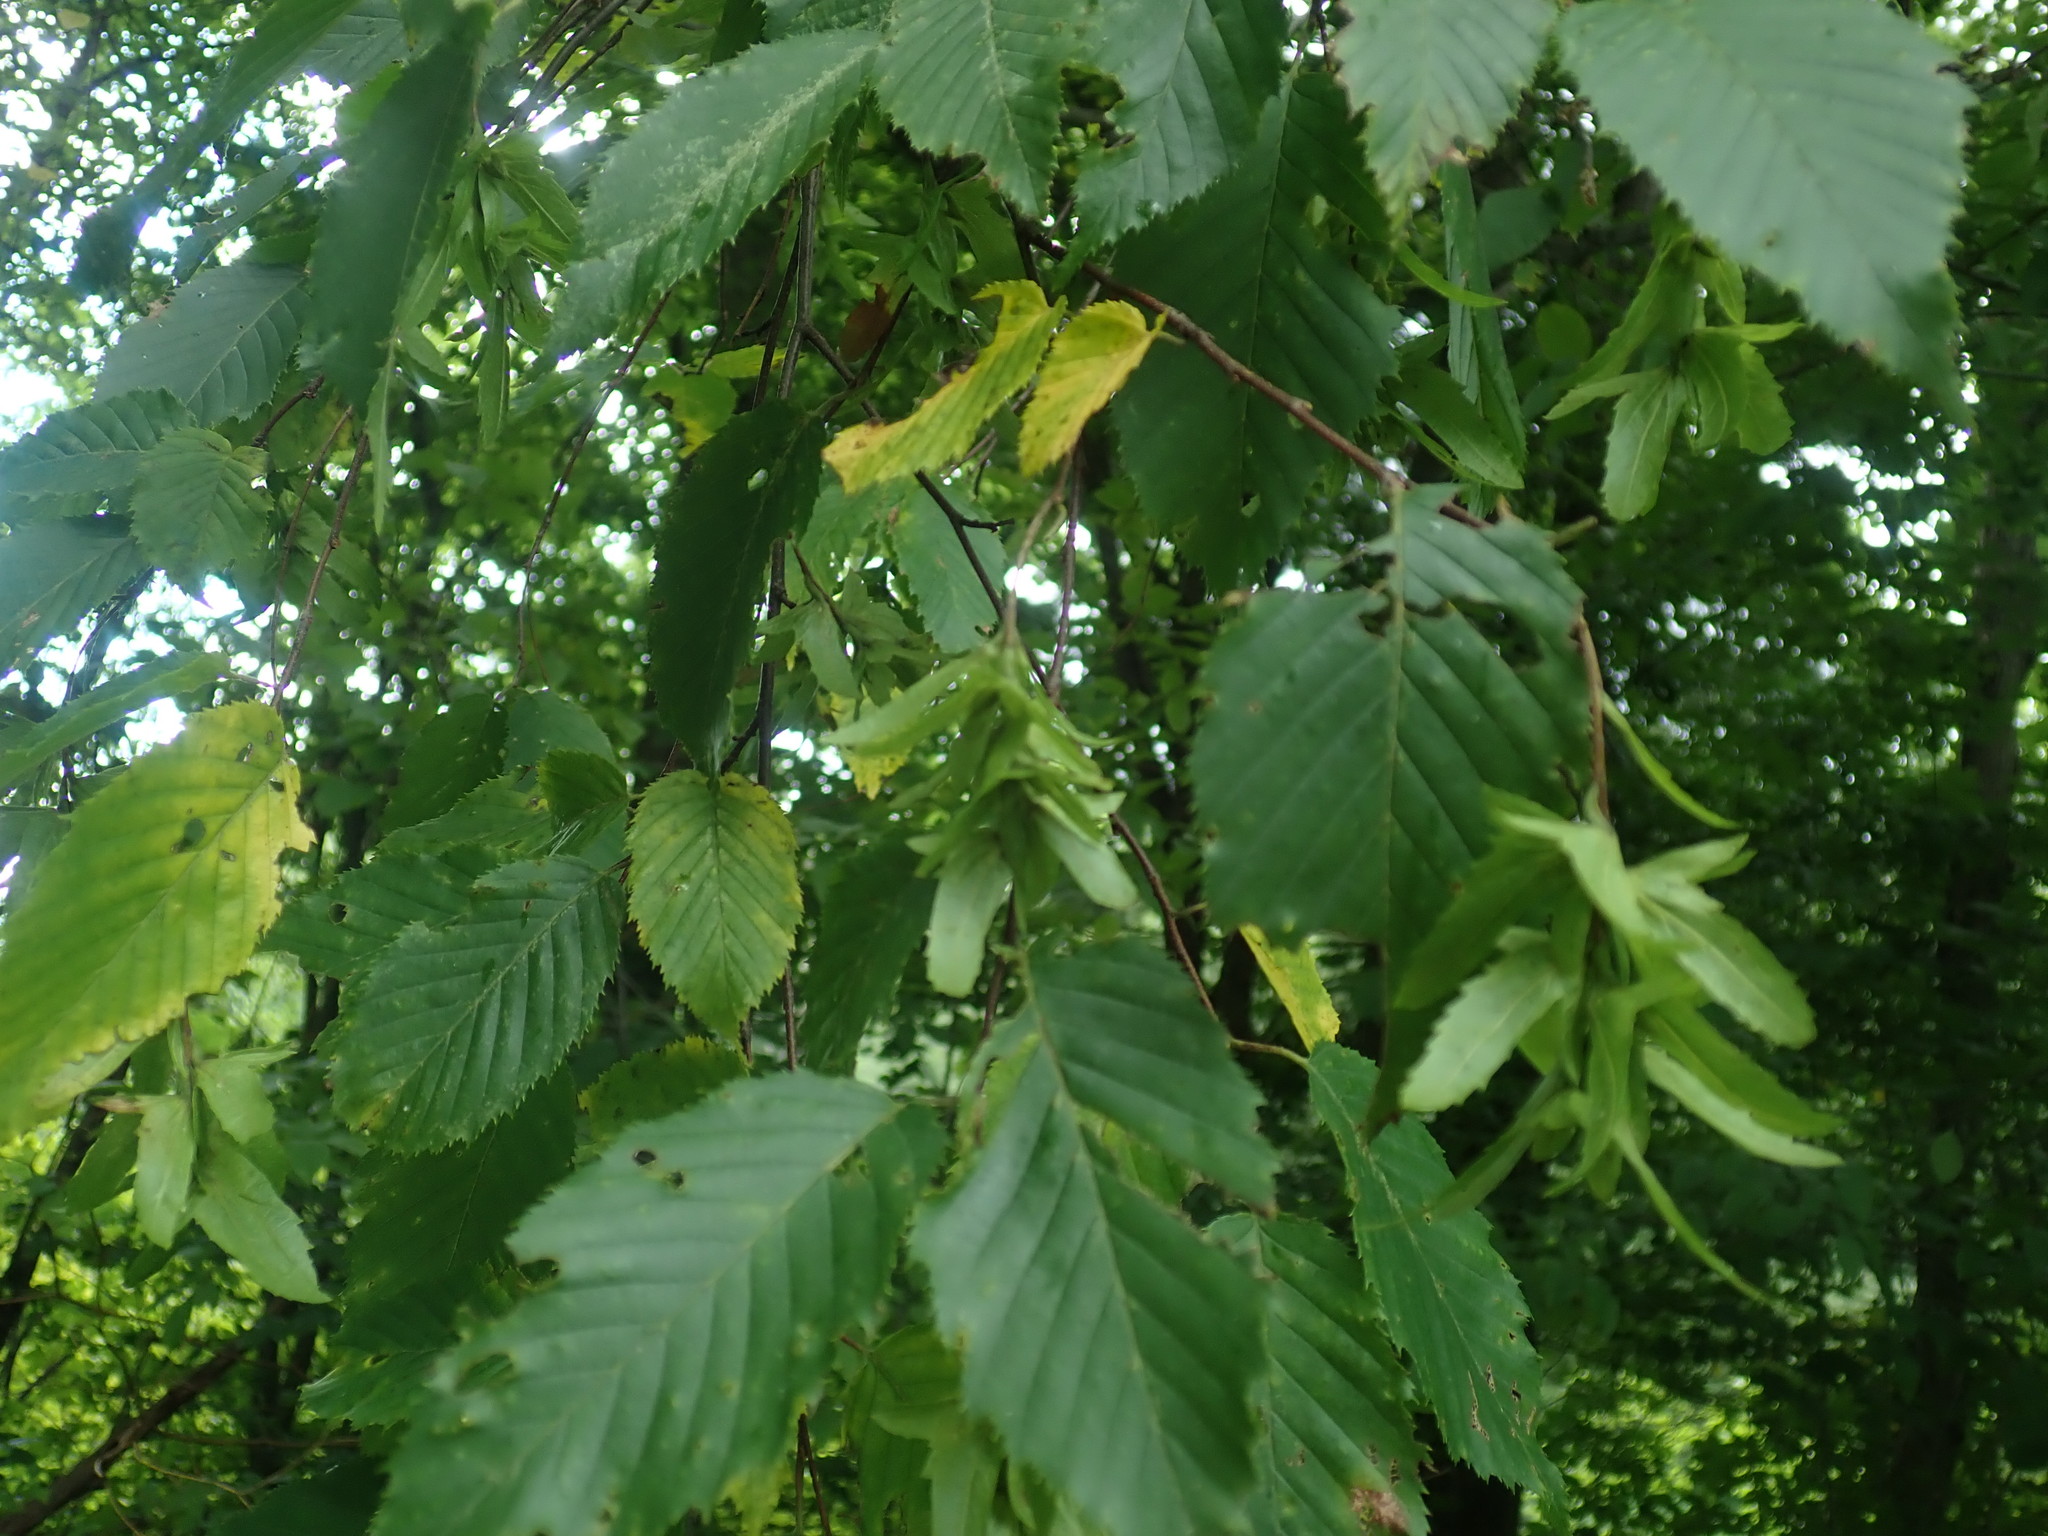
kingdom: Plantae
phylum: Tracheophyta
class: Magnoliopsida
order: Fagales
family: Betulaceae
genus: Carpinus
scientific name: Carpinus caroliniana
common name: American hornbeam
